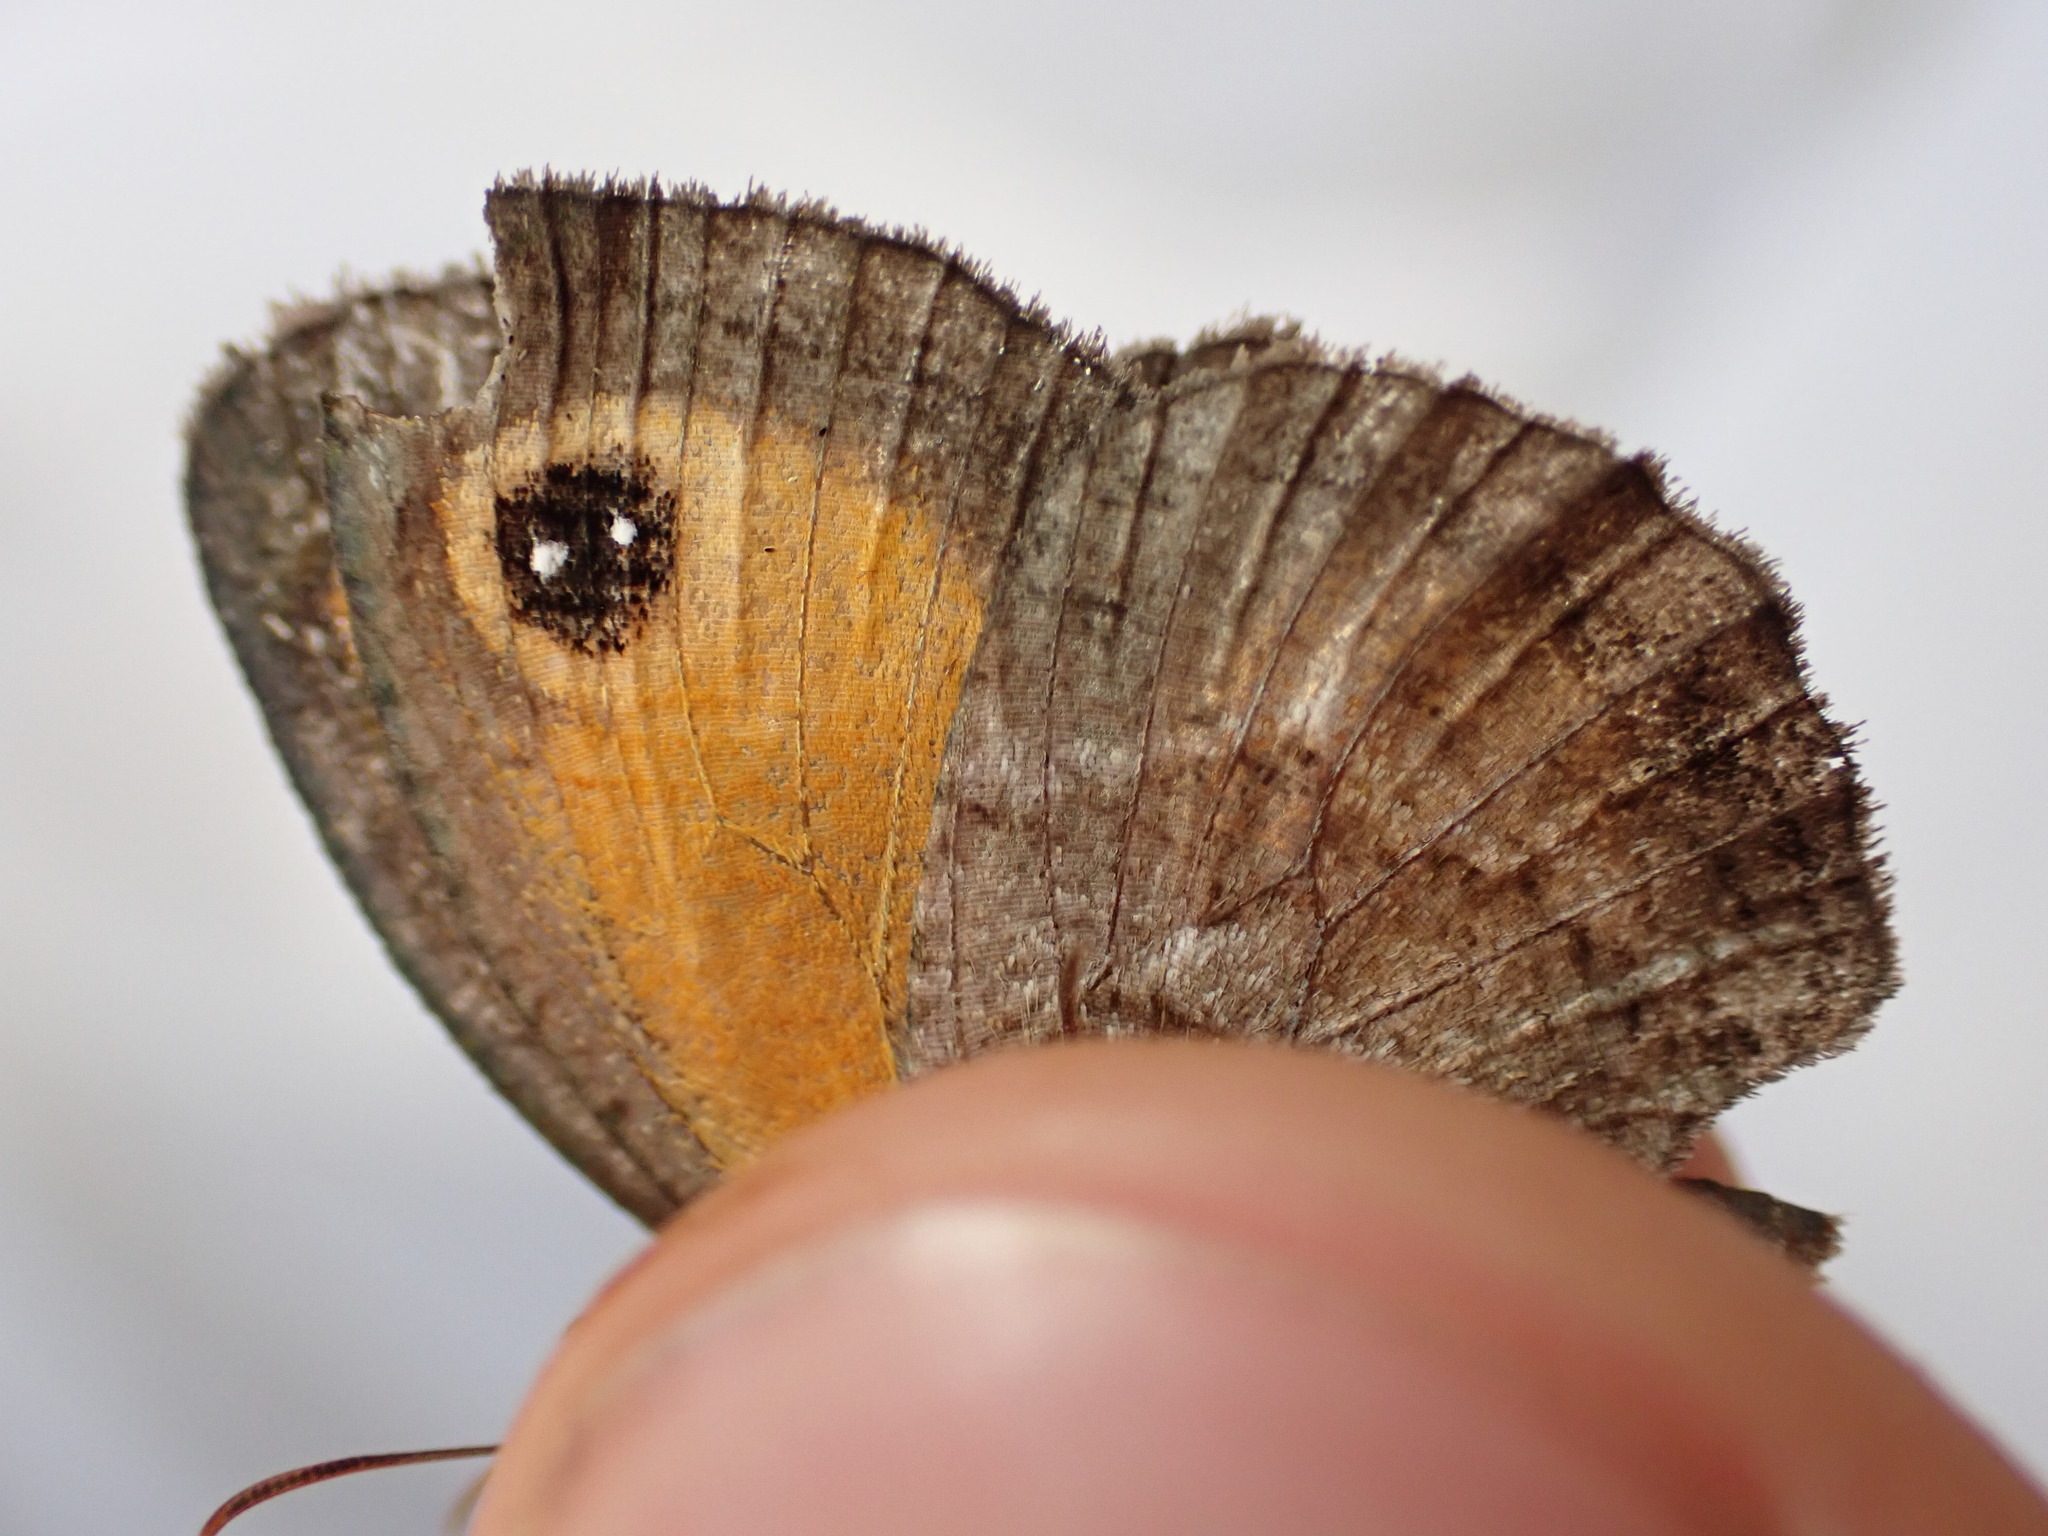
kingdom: Animalia
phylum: Arthropoda
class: Insecta
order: Lepidoptera
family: Nymphalidae
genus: Pyronia
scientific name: Pyronia cecilia
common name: Southern gatekeeper
